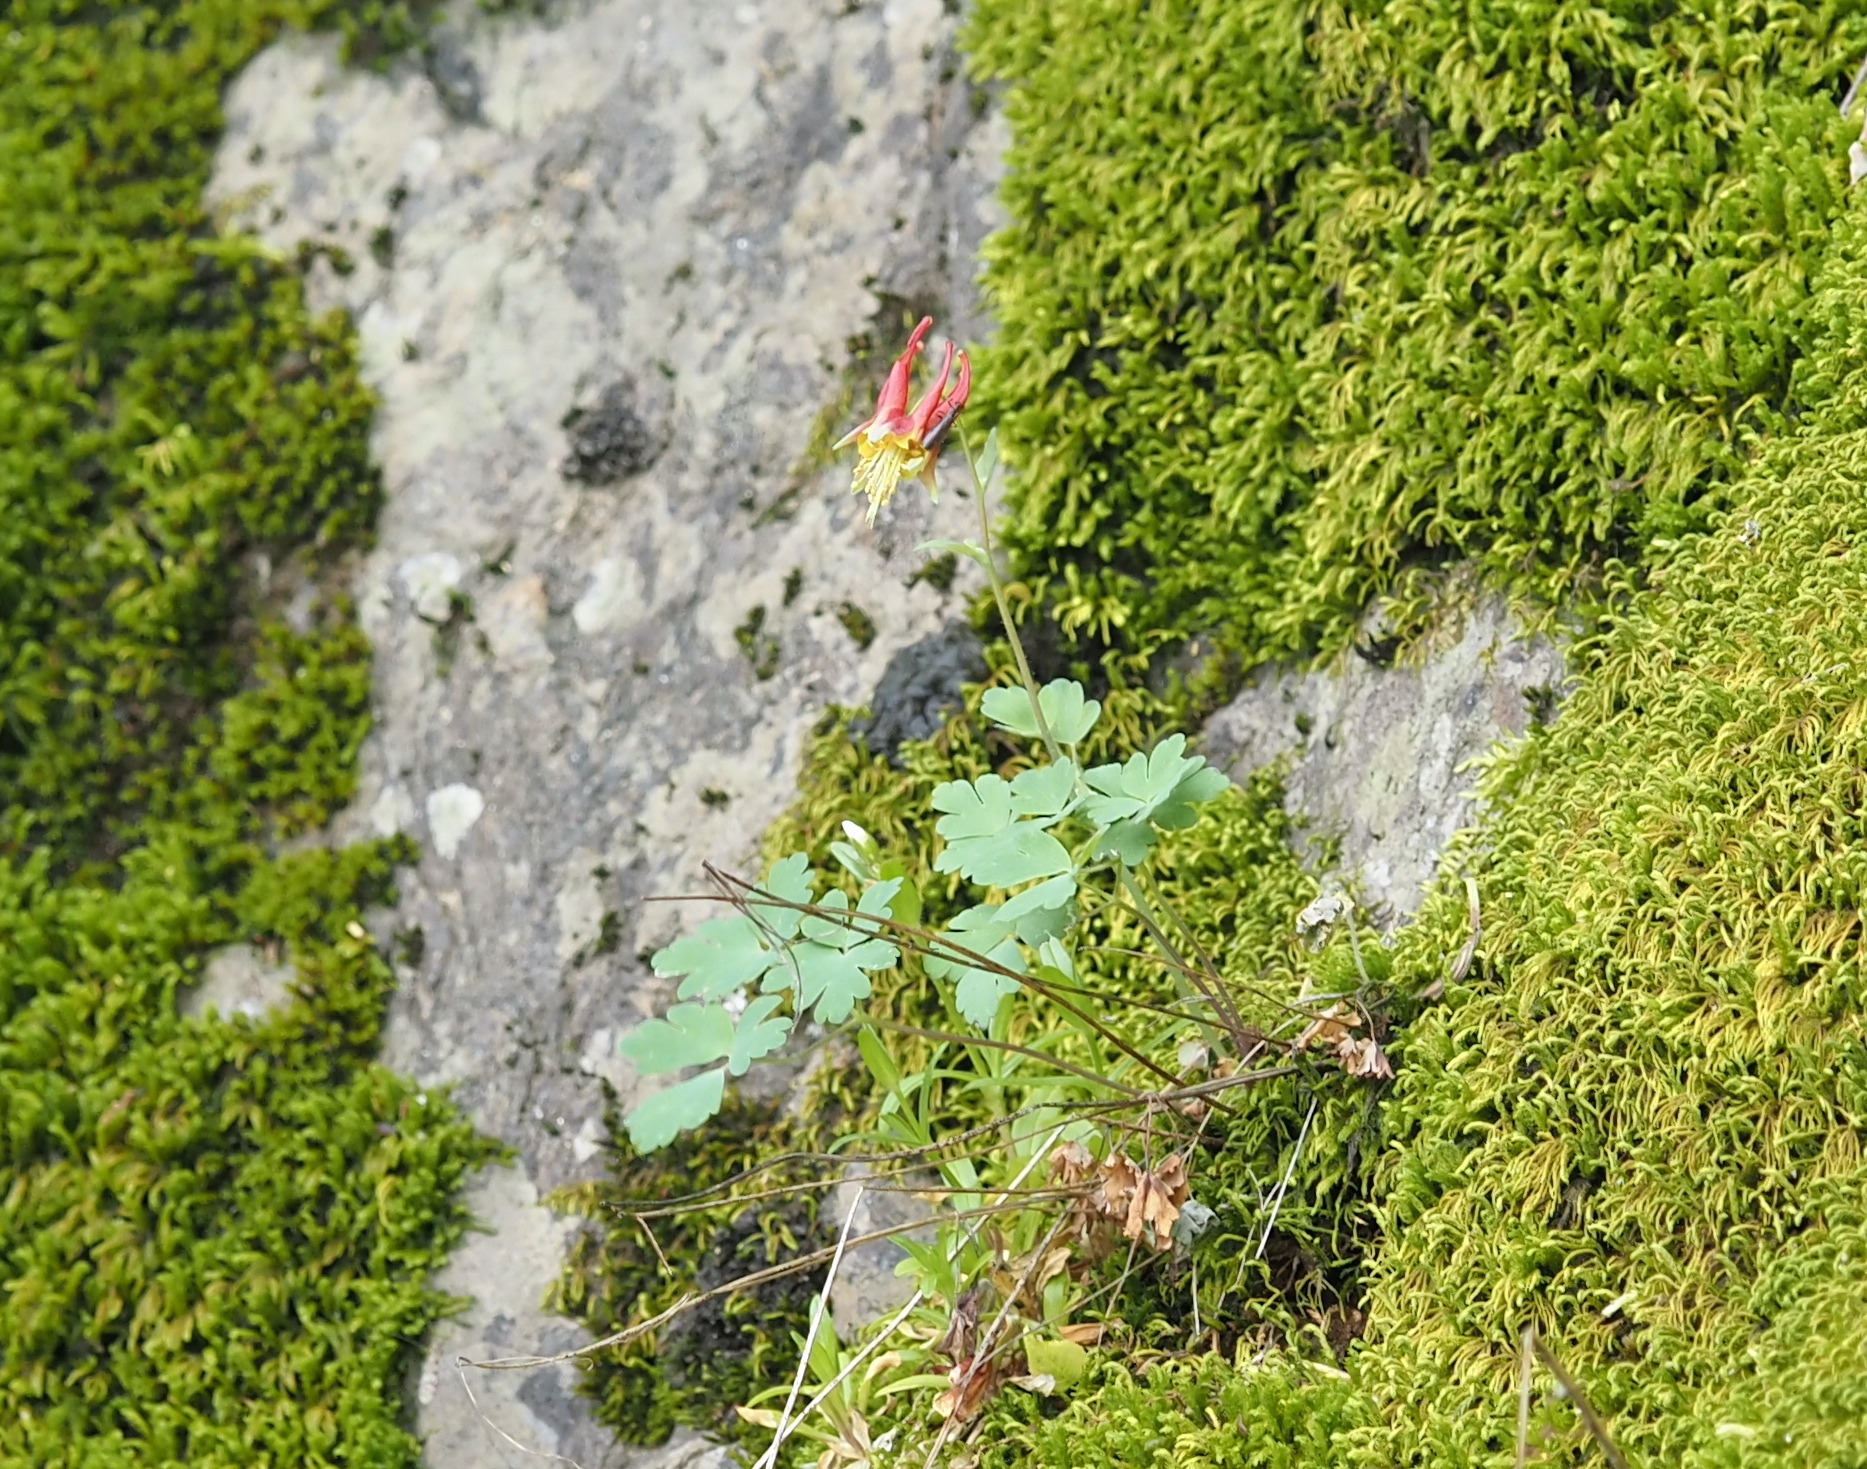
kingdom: Plantae
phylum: Tracheophyta
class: Magnoliopsida
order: Ranunculales
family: Ranunculaceae
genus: Aquilegia
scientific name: Aquilegia canadensis
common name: American columbine
